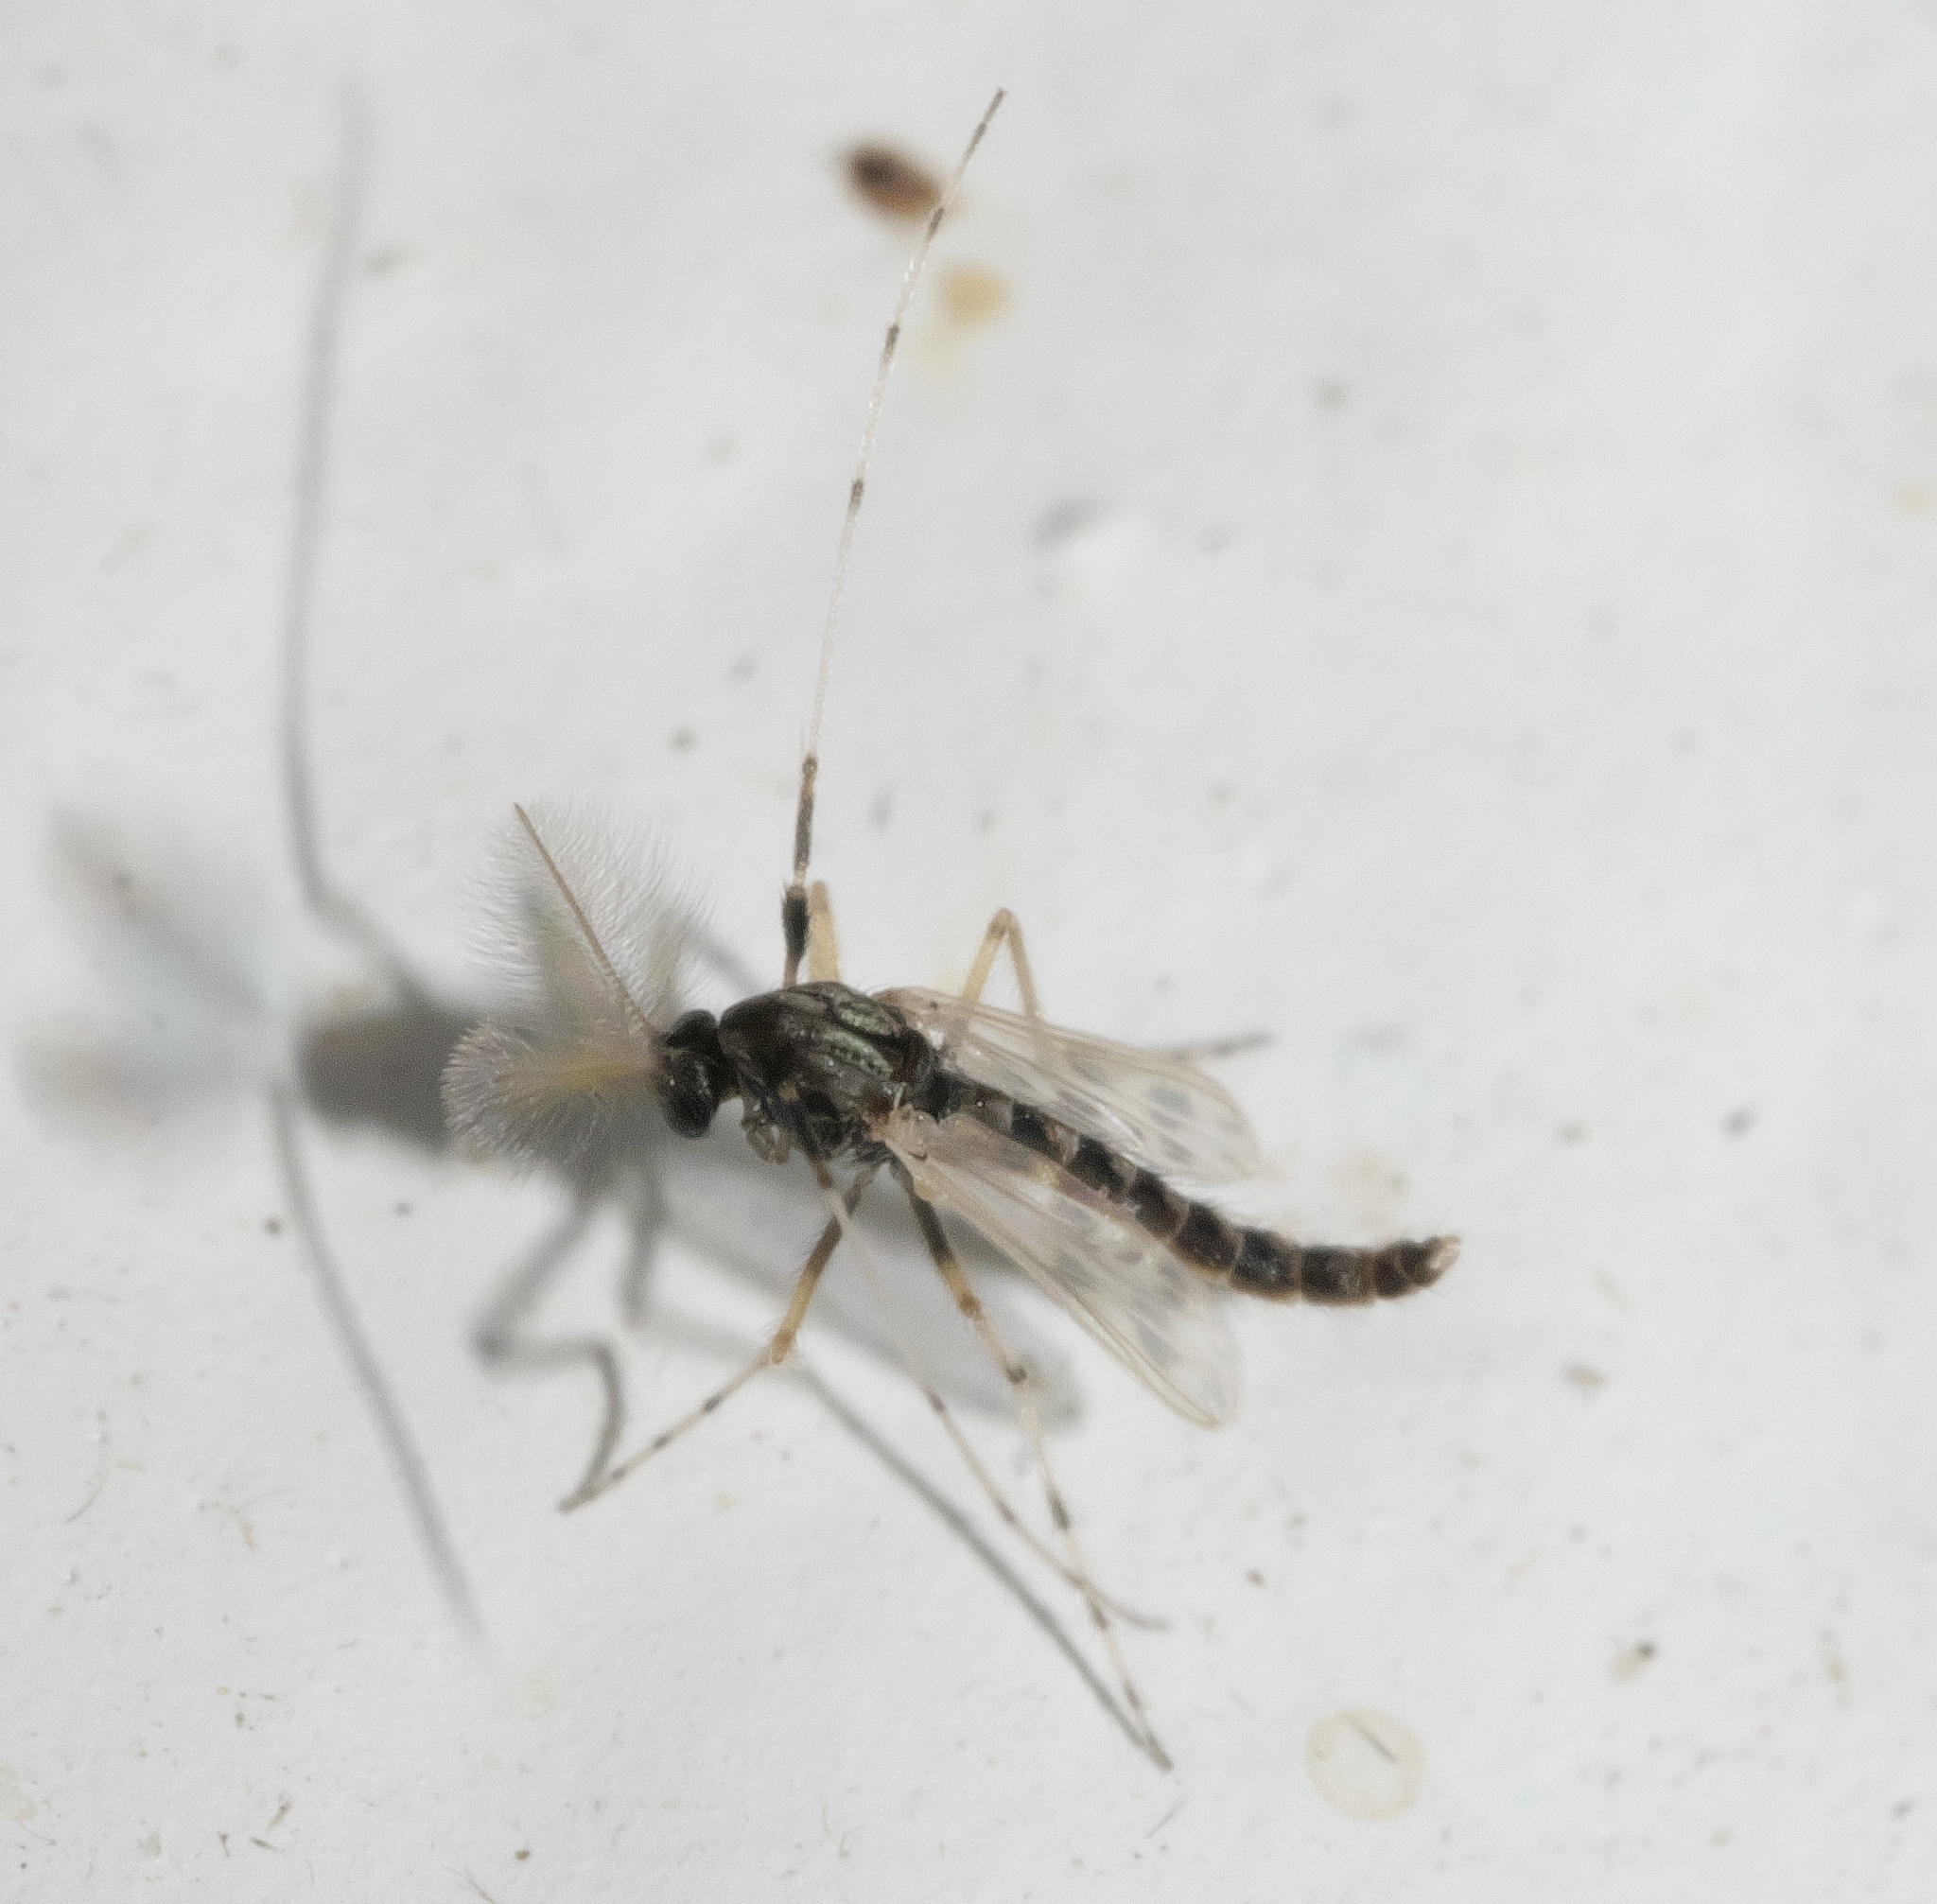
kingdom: Animalia
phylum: Arthropoda
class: Insecta
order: Diptera
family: Chironomidae
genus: Zavreliella
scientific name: Zavreliella marmorata
